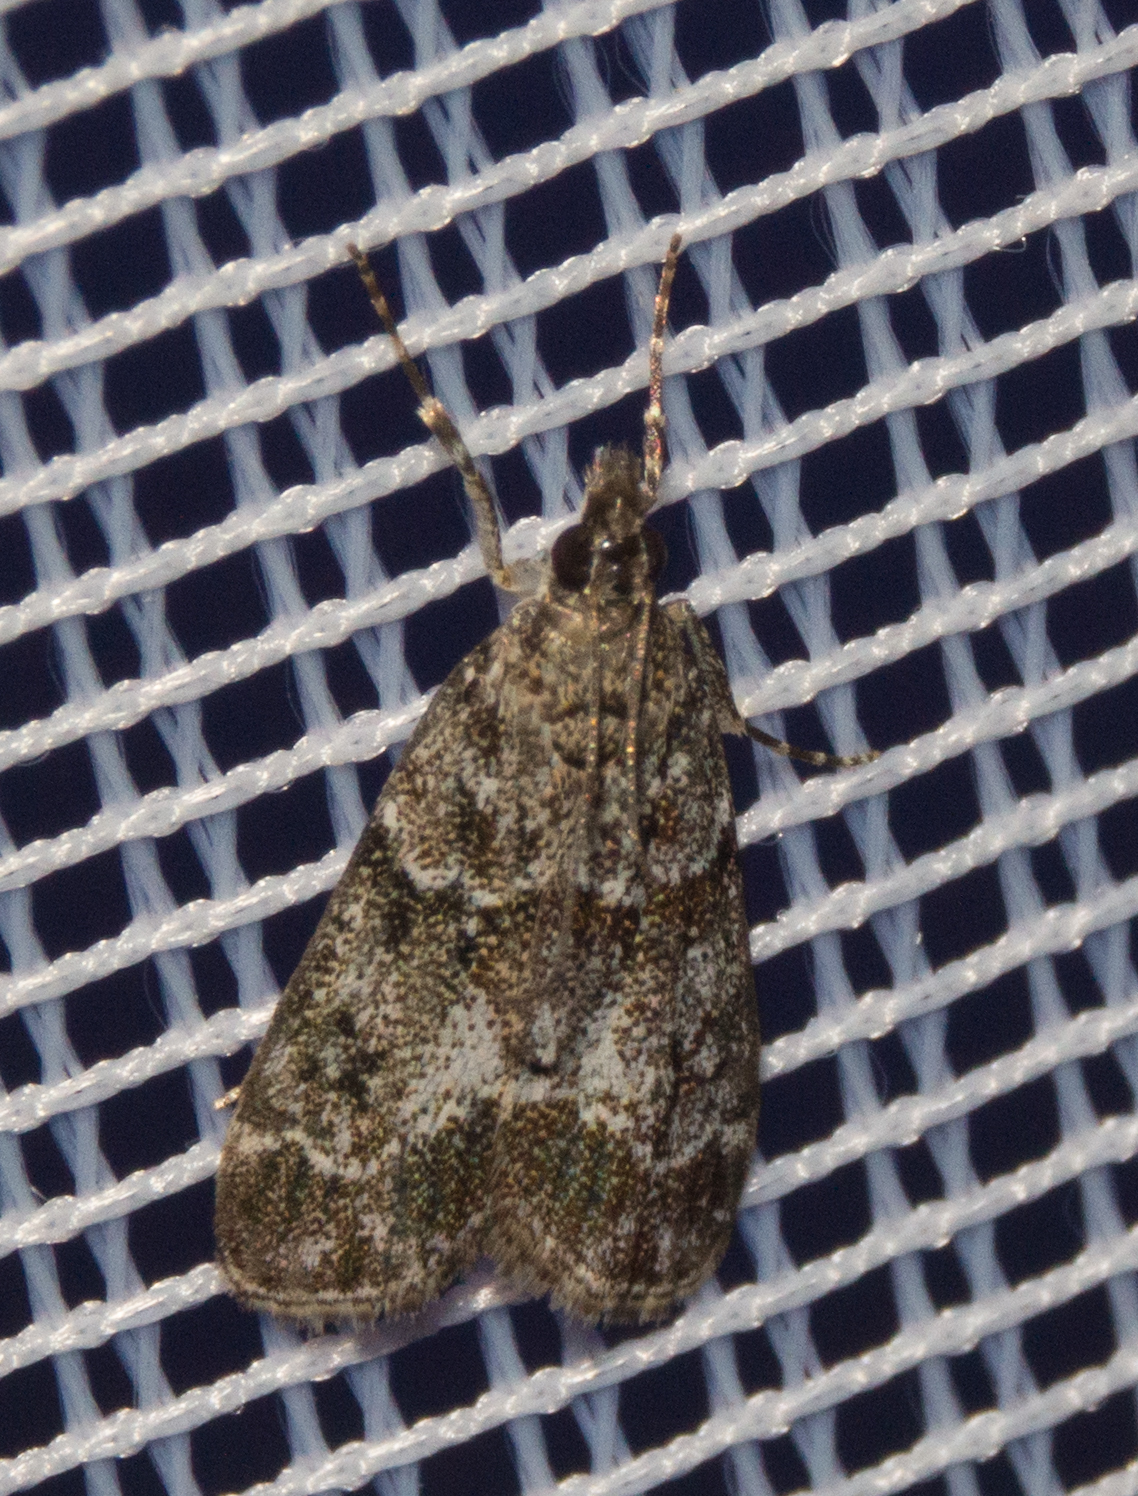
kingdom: Animalia
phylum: Arthropoda
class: Insecta
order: Lepidoptera
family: Crambidae
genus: Eudonia
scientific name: Eudonia mercurella
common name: Small grey
